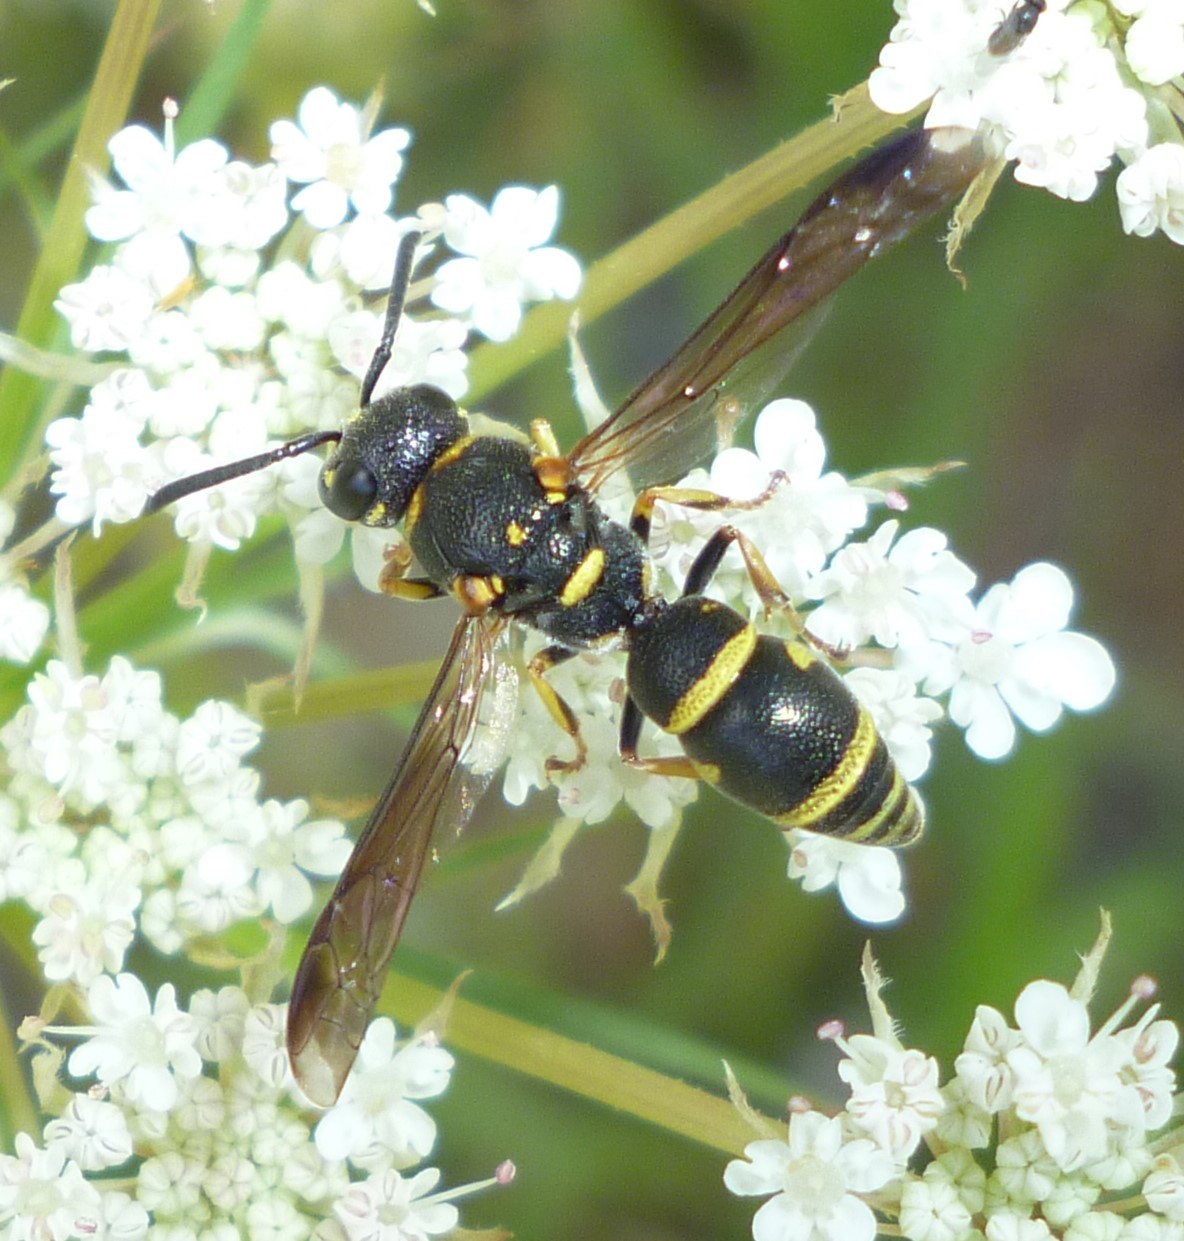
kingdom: Animalia
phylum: Arthropoda
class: Insecta
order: Hymenoptera
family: Eumenidae
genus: Parancistrocerus
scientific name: Parancistrocerus pedestris
